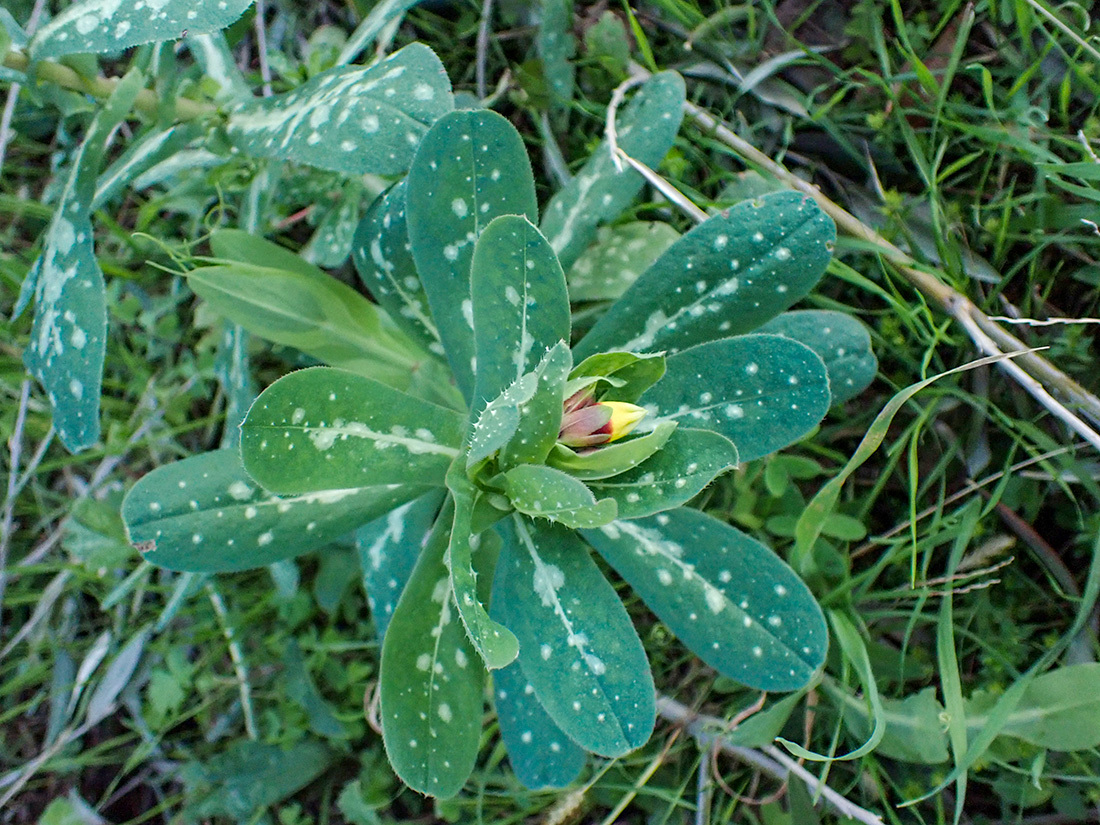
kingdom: Plantae
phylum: Tracheophyta
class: Magnoliopsida
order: Boraginales
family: Boraginaceae
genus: Cerinthe
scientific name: Cerinthe major
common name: Greater honeywort
